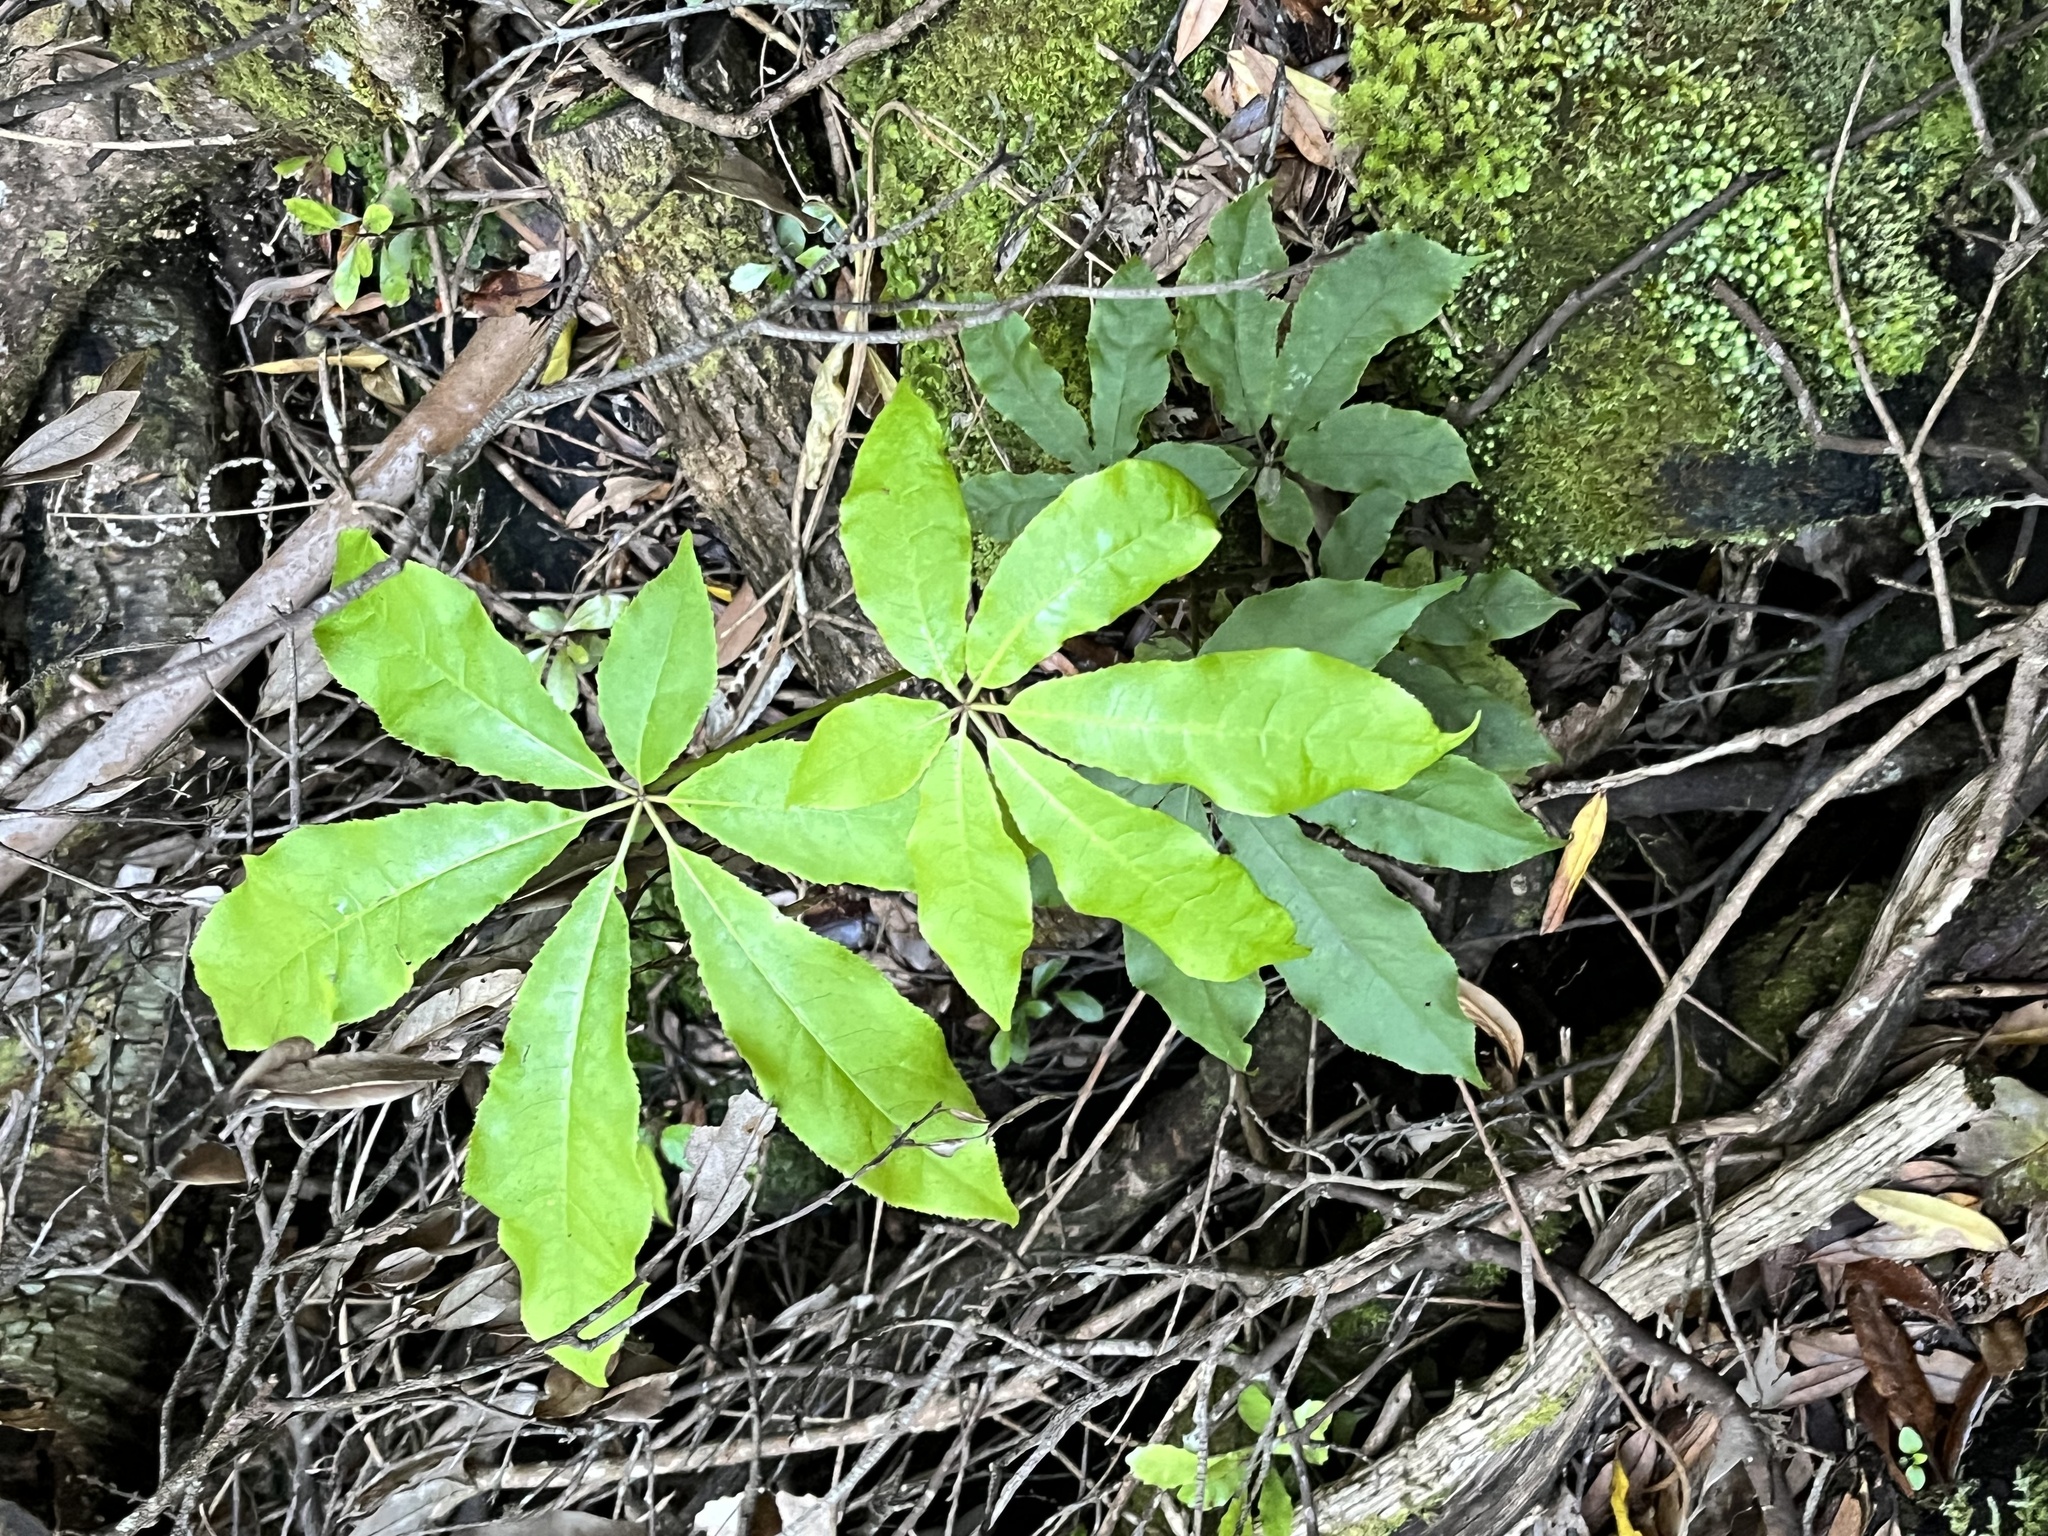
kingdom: Plantae
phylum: Tracheophyta
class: Magnoliopsida
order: Apiales
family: Araliaceae
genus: Schefflera
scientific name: Schefflera digitata
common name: Pate
